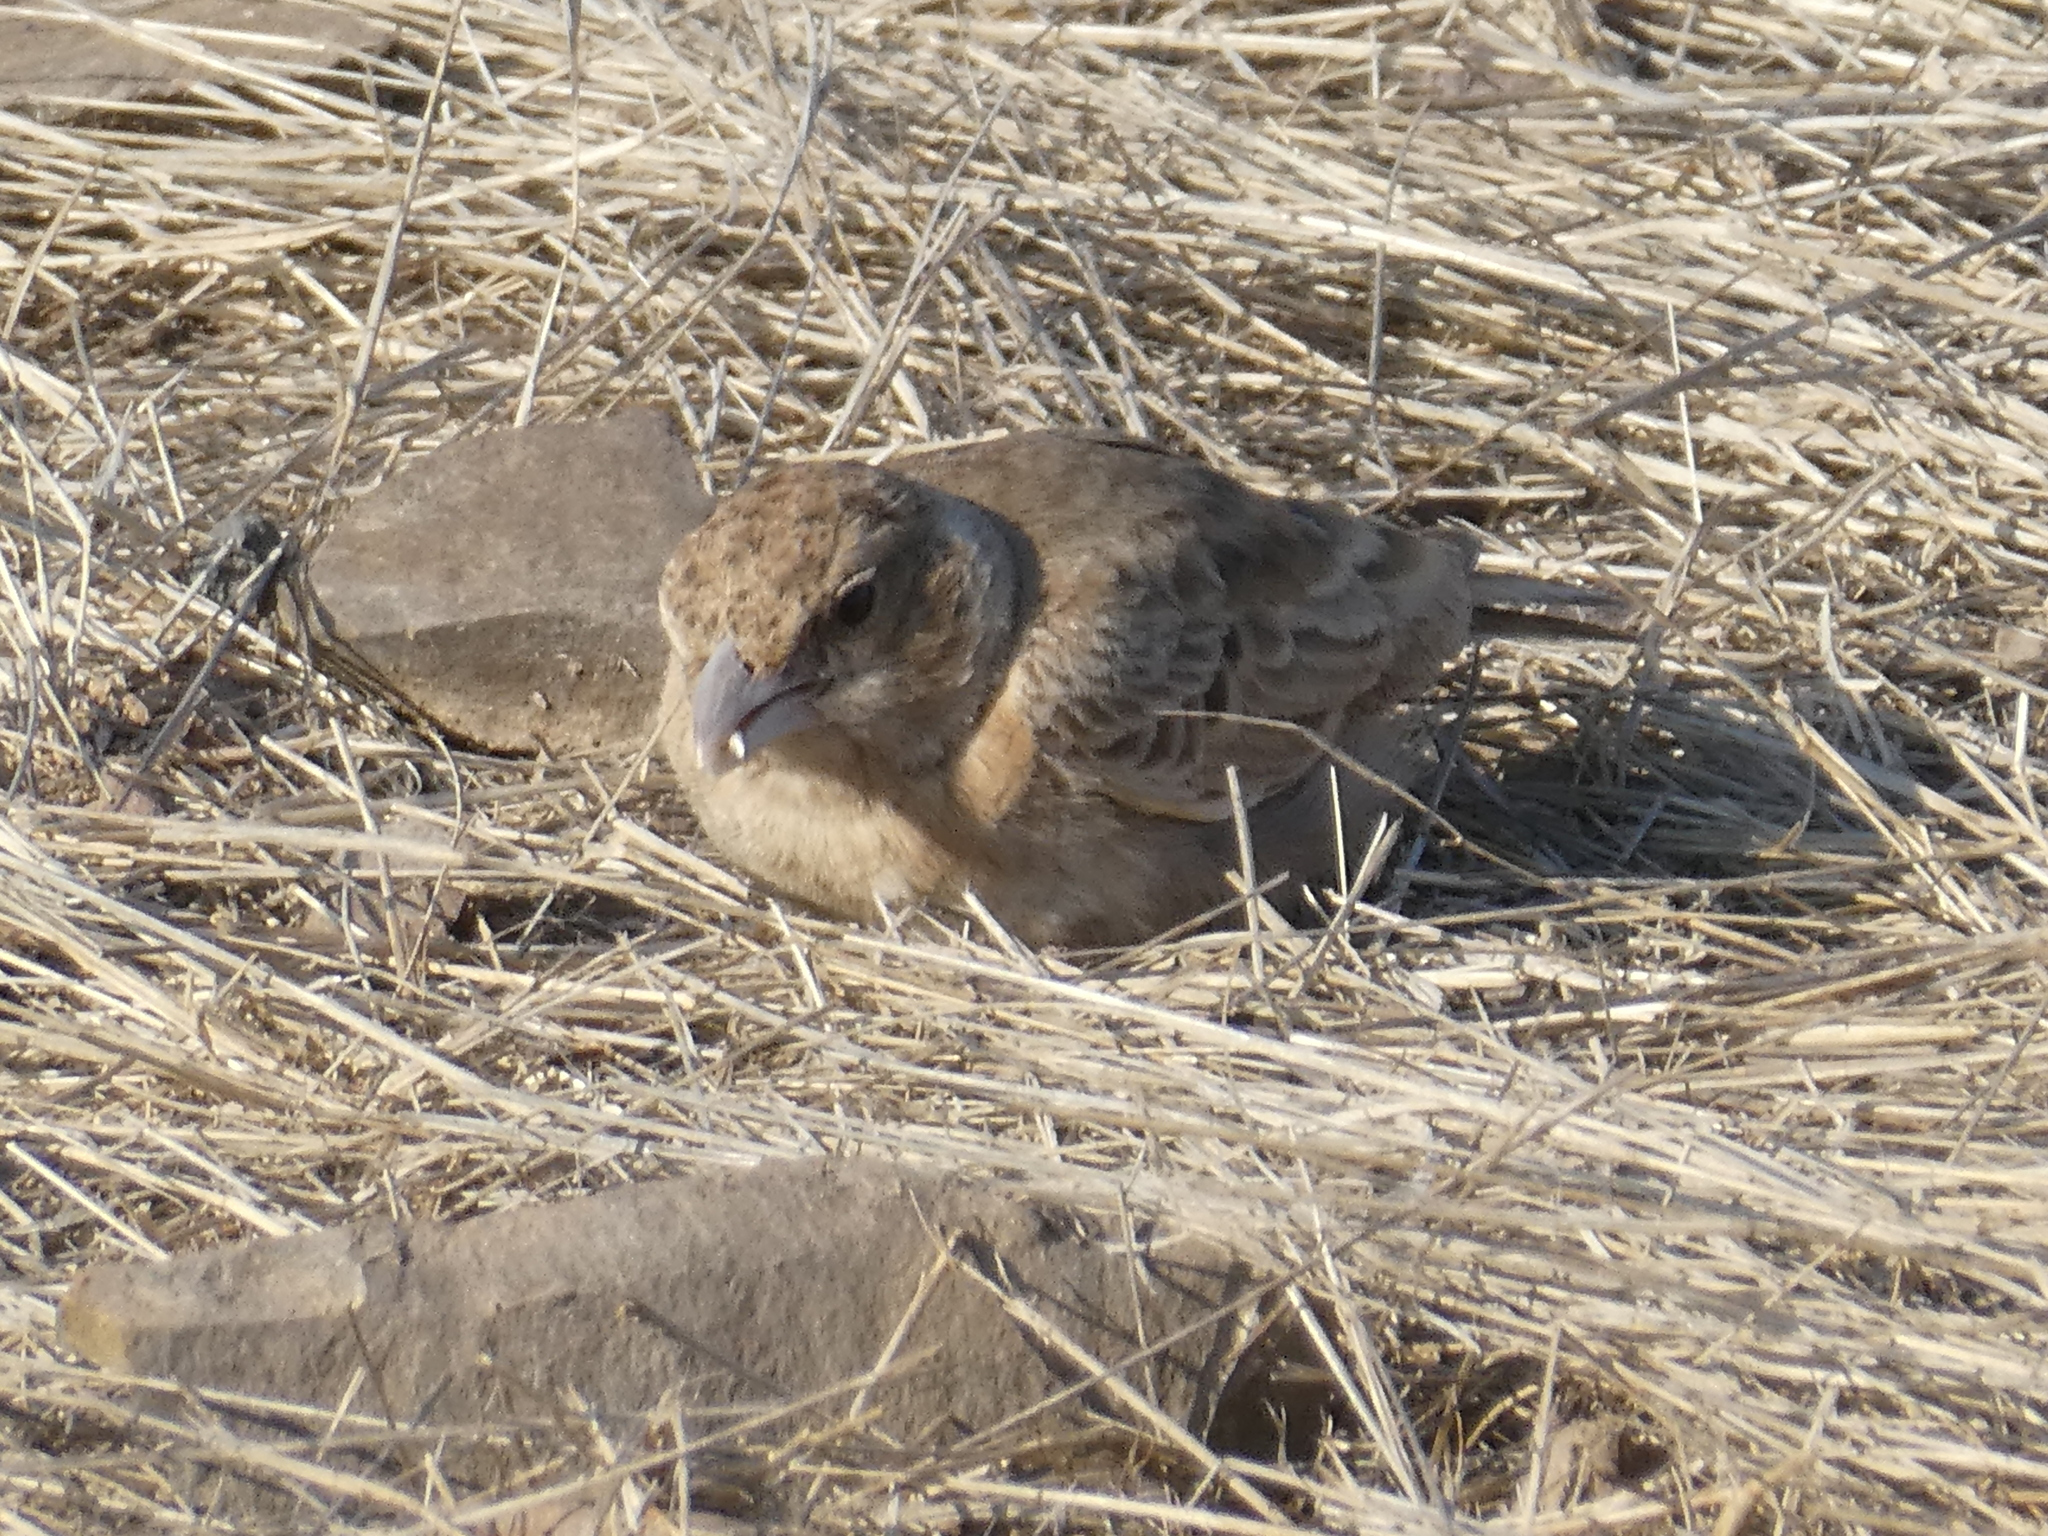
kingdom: Animalia
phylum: Chordata
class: Aves
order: Passeriformes
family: Alaudidae
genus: Eremopterix
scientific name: Eremopterix griseus
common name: Ashy-crowned sparrow-lark
